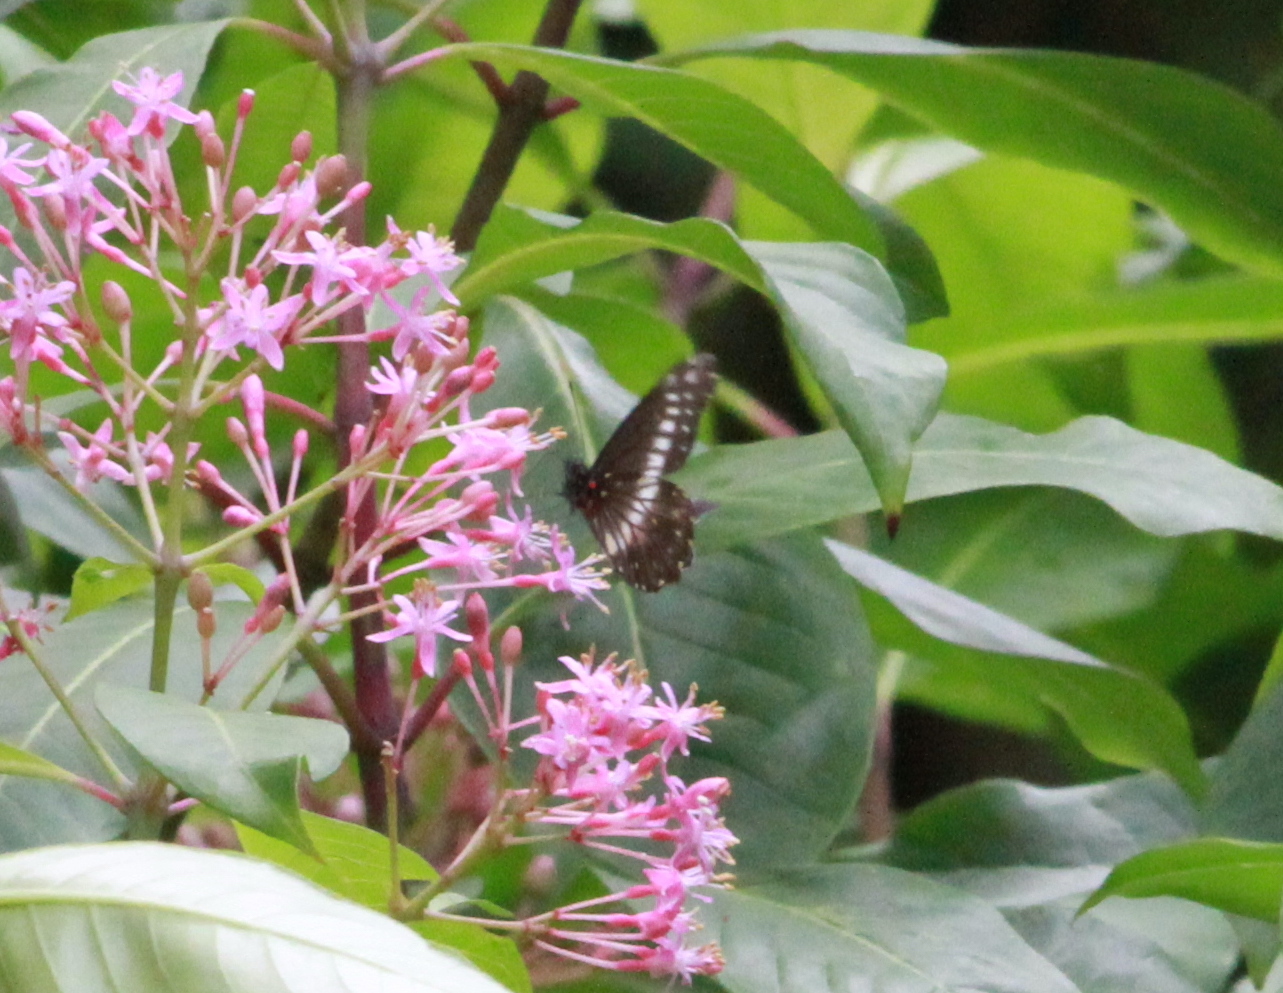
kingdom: Animalia
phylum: Arthropoda
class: Insecta
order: Lepidoptera
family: Pieridae
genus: Archonias
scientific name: Archonias flisa
